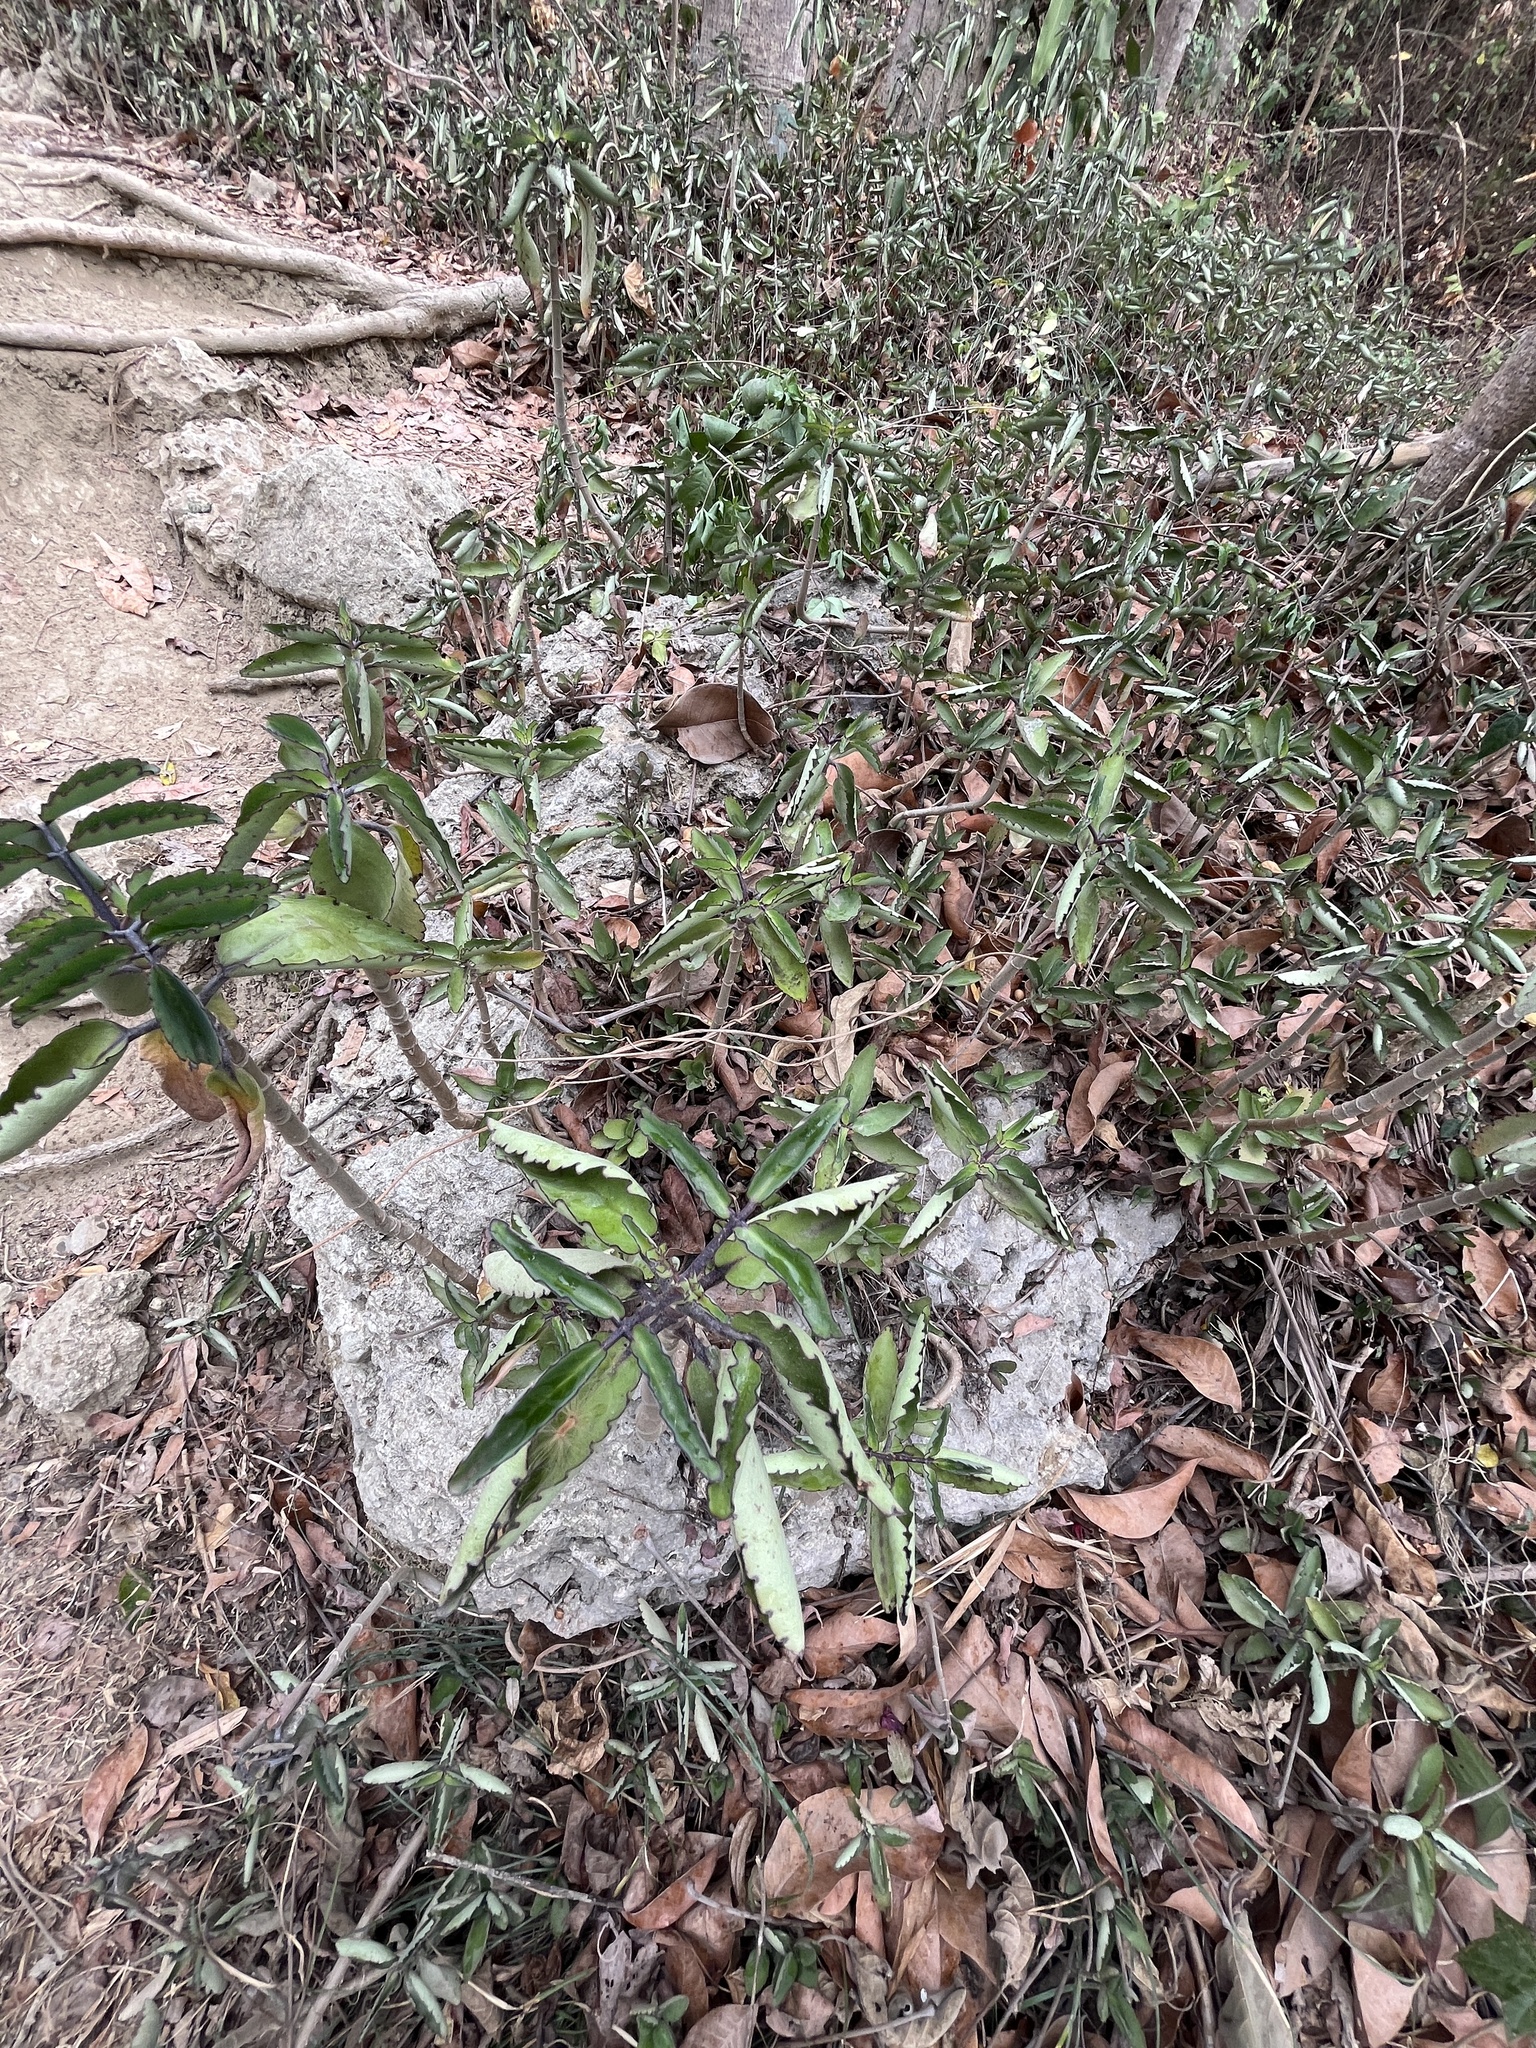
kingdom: Plantae
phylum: Tracheophyta
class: Magnoliopsida
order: Saxifragales
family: Crassulaceae
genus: Kalanchoe
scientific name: Kalanchoe pinnata
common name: Cathedral bells
